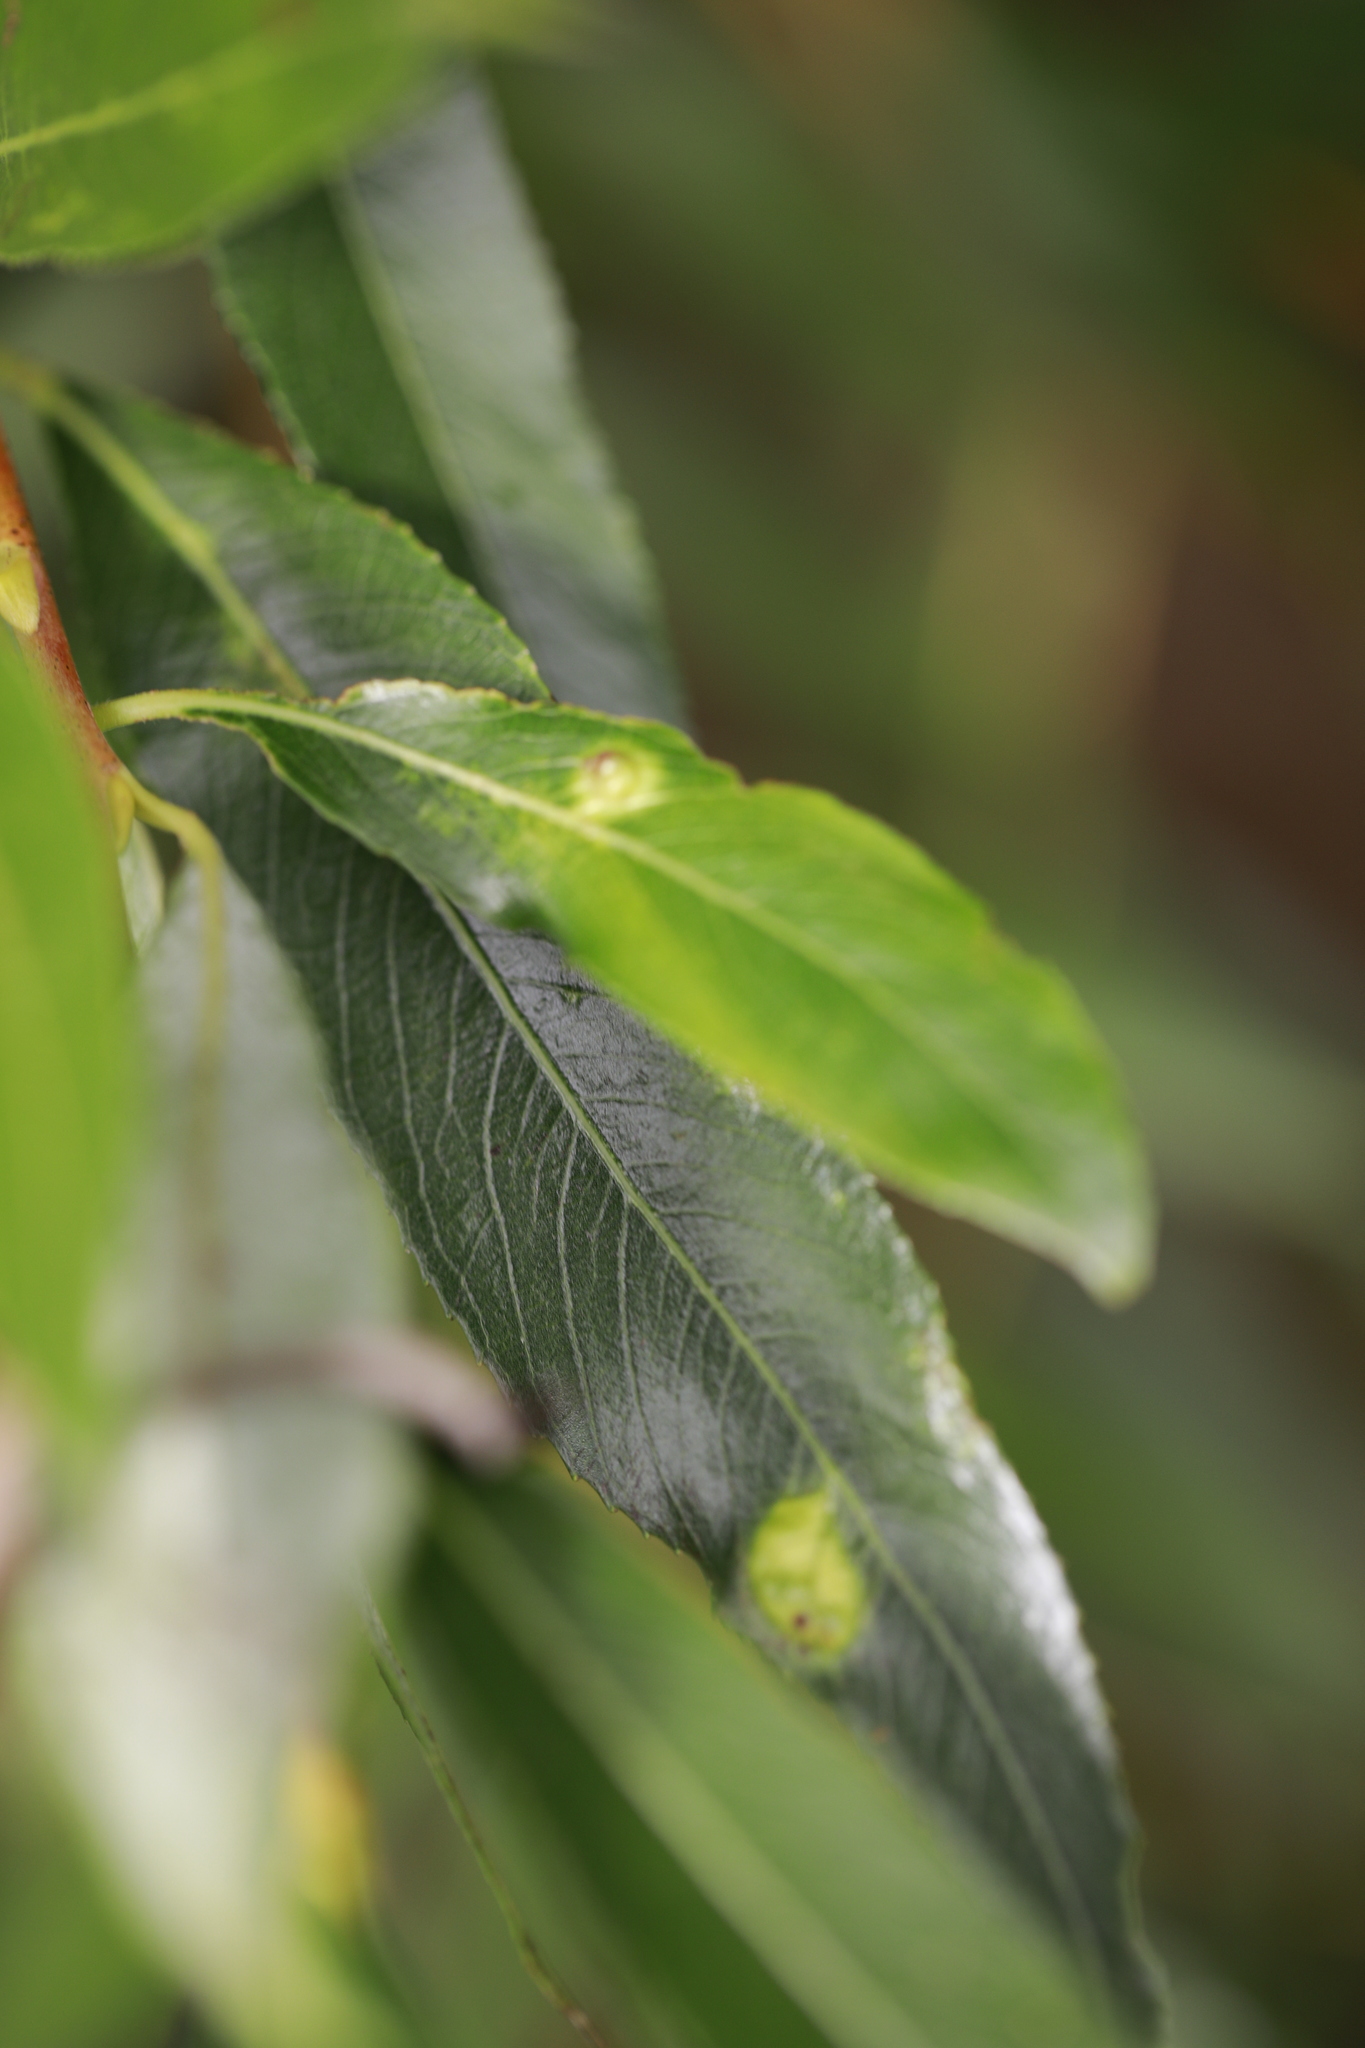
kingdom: Animalia
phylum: Arthropoda
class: Insecta
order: Hymenoptera
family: Tenthredinidae
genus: Pontania
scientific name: Pontania proxima
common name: Common sawfly
